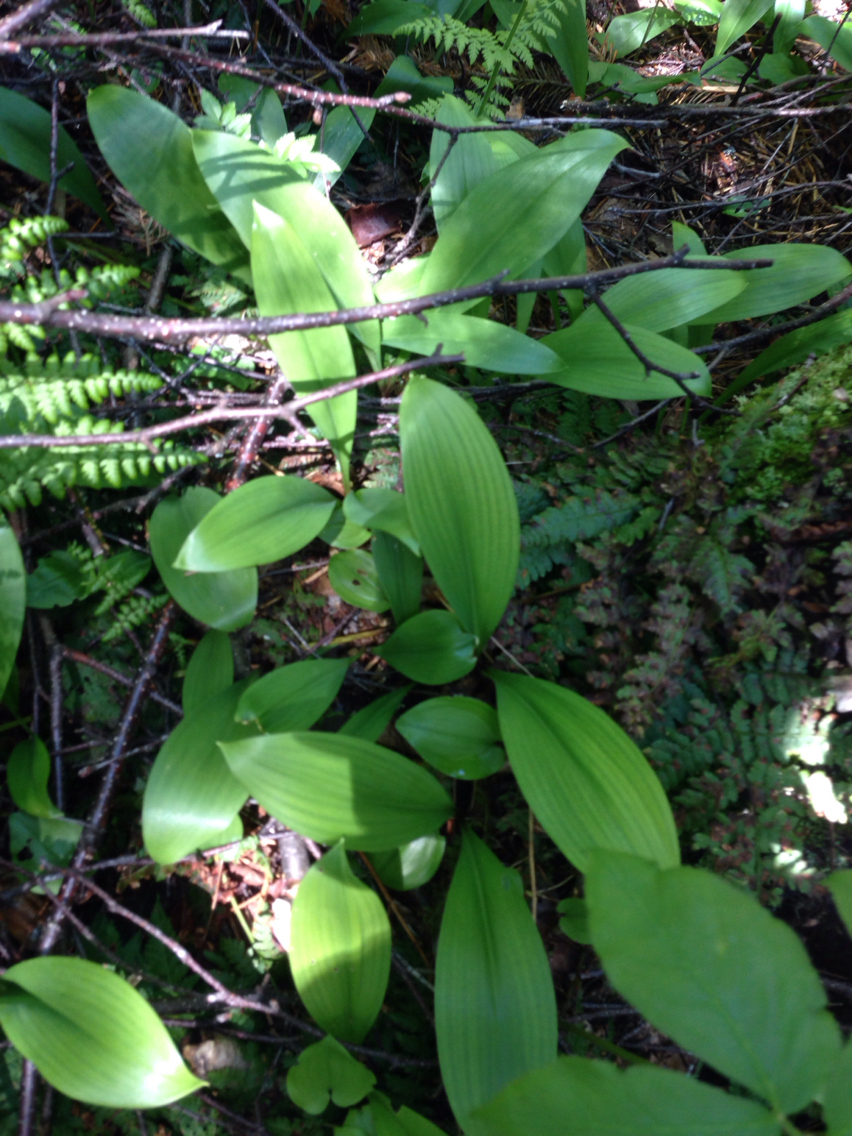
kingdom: Plantae
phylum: Tracheophyta
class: Liliopsida
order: Liliales
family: Liliaceae
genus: Clintonia
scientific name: Clintonia borealis
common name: Yellow clintonia
